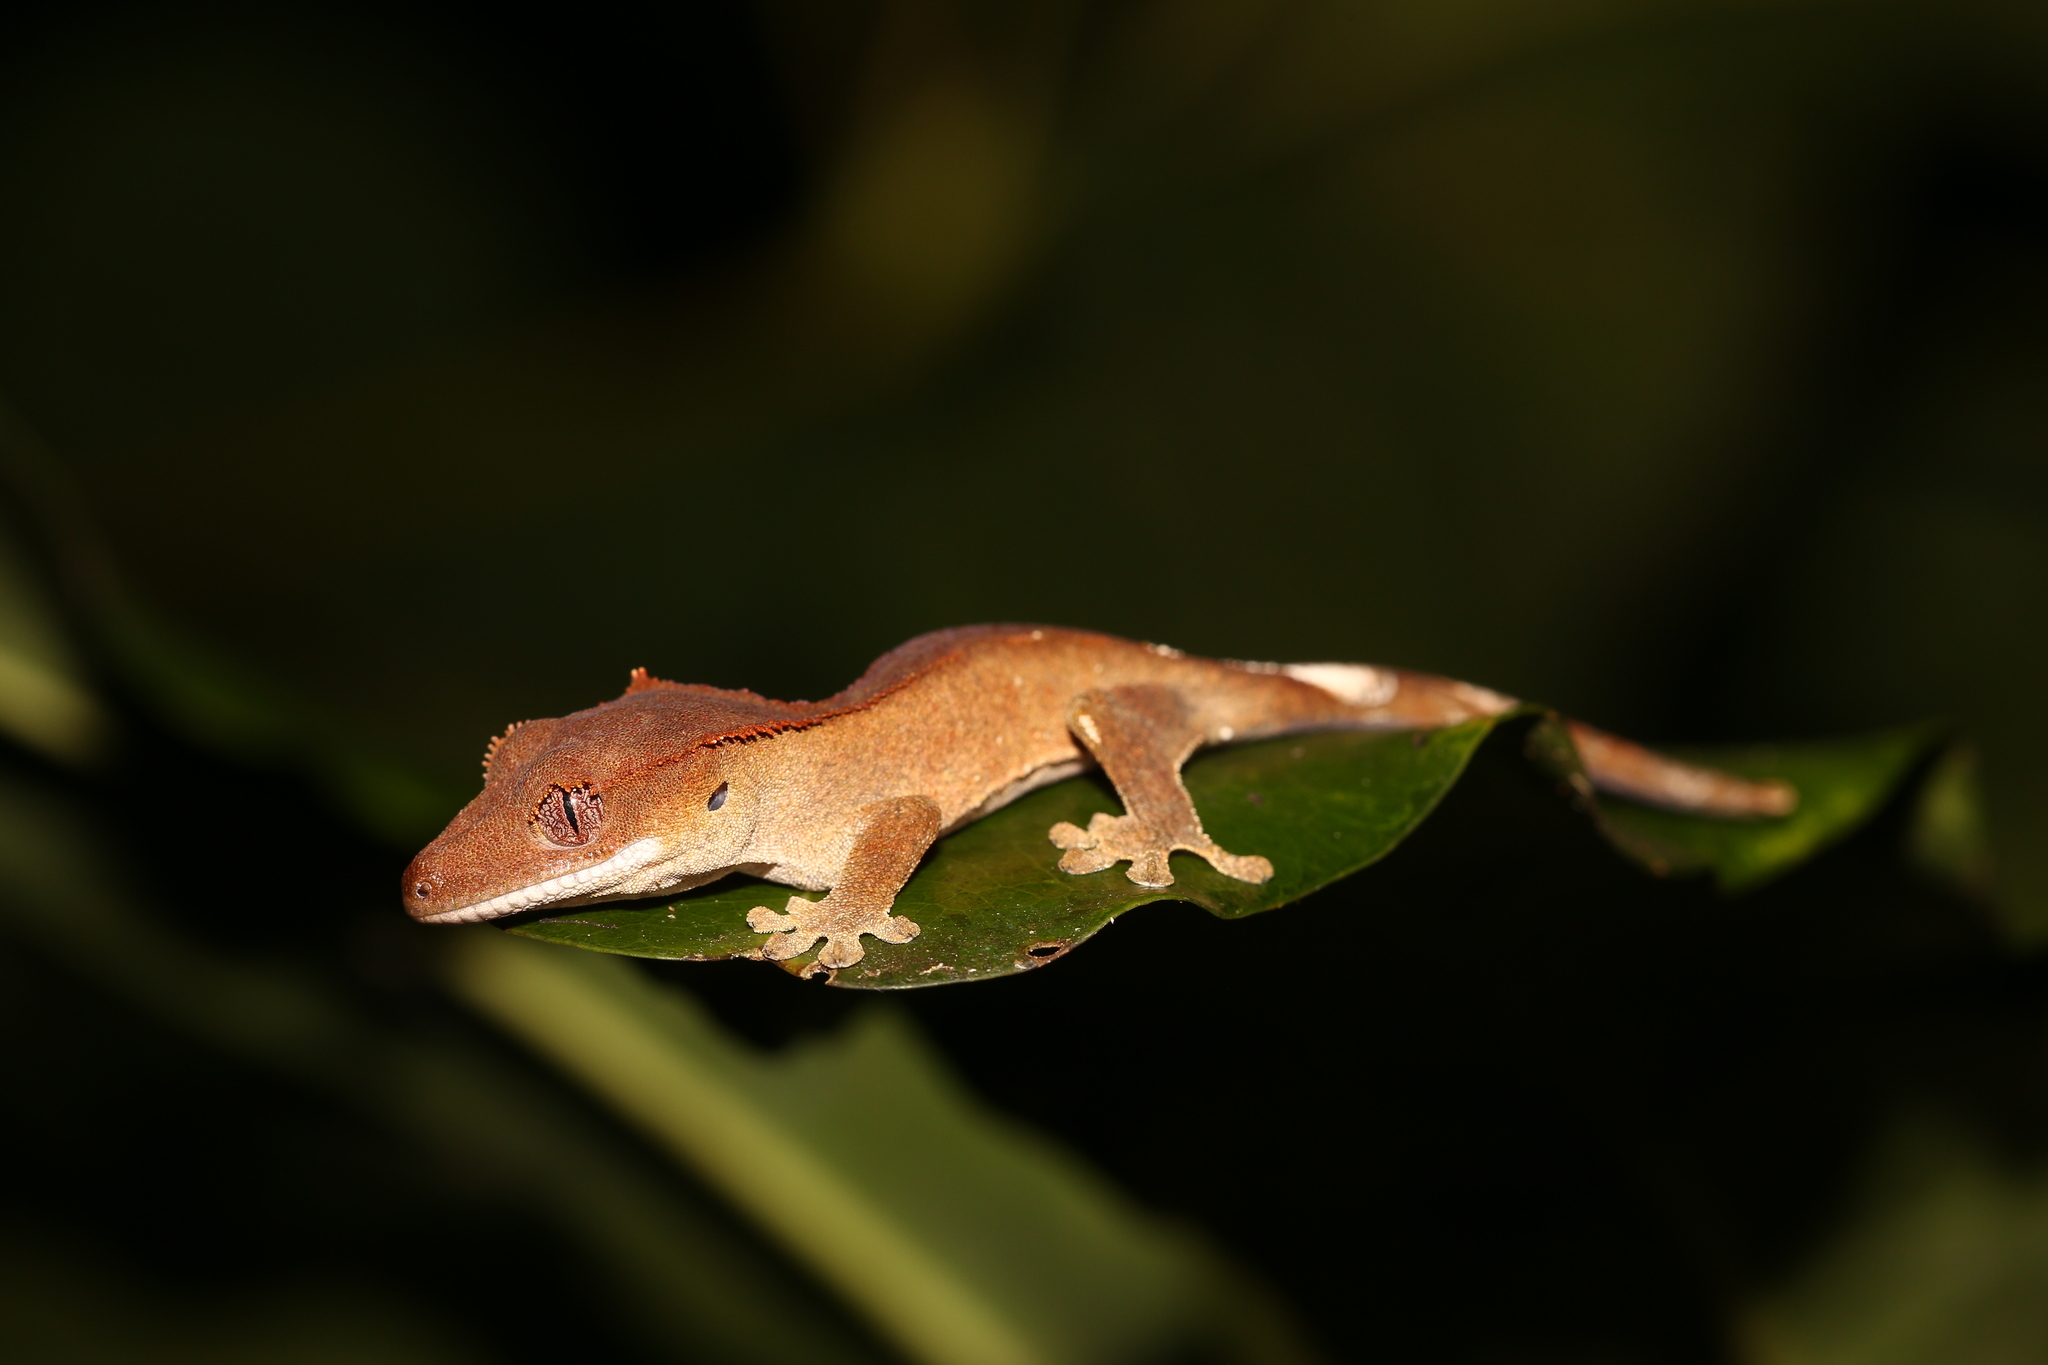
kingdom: Animalia
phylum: Chordata
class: Squamata
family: Diplodactylidae
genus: Correlophus
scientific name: Correlophus ciliatus
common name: Crested gecko
